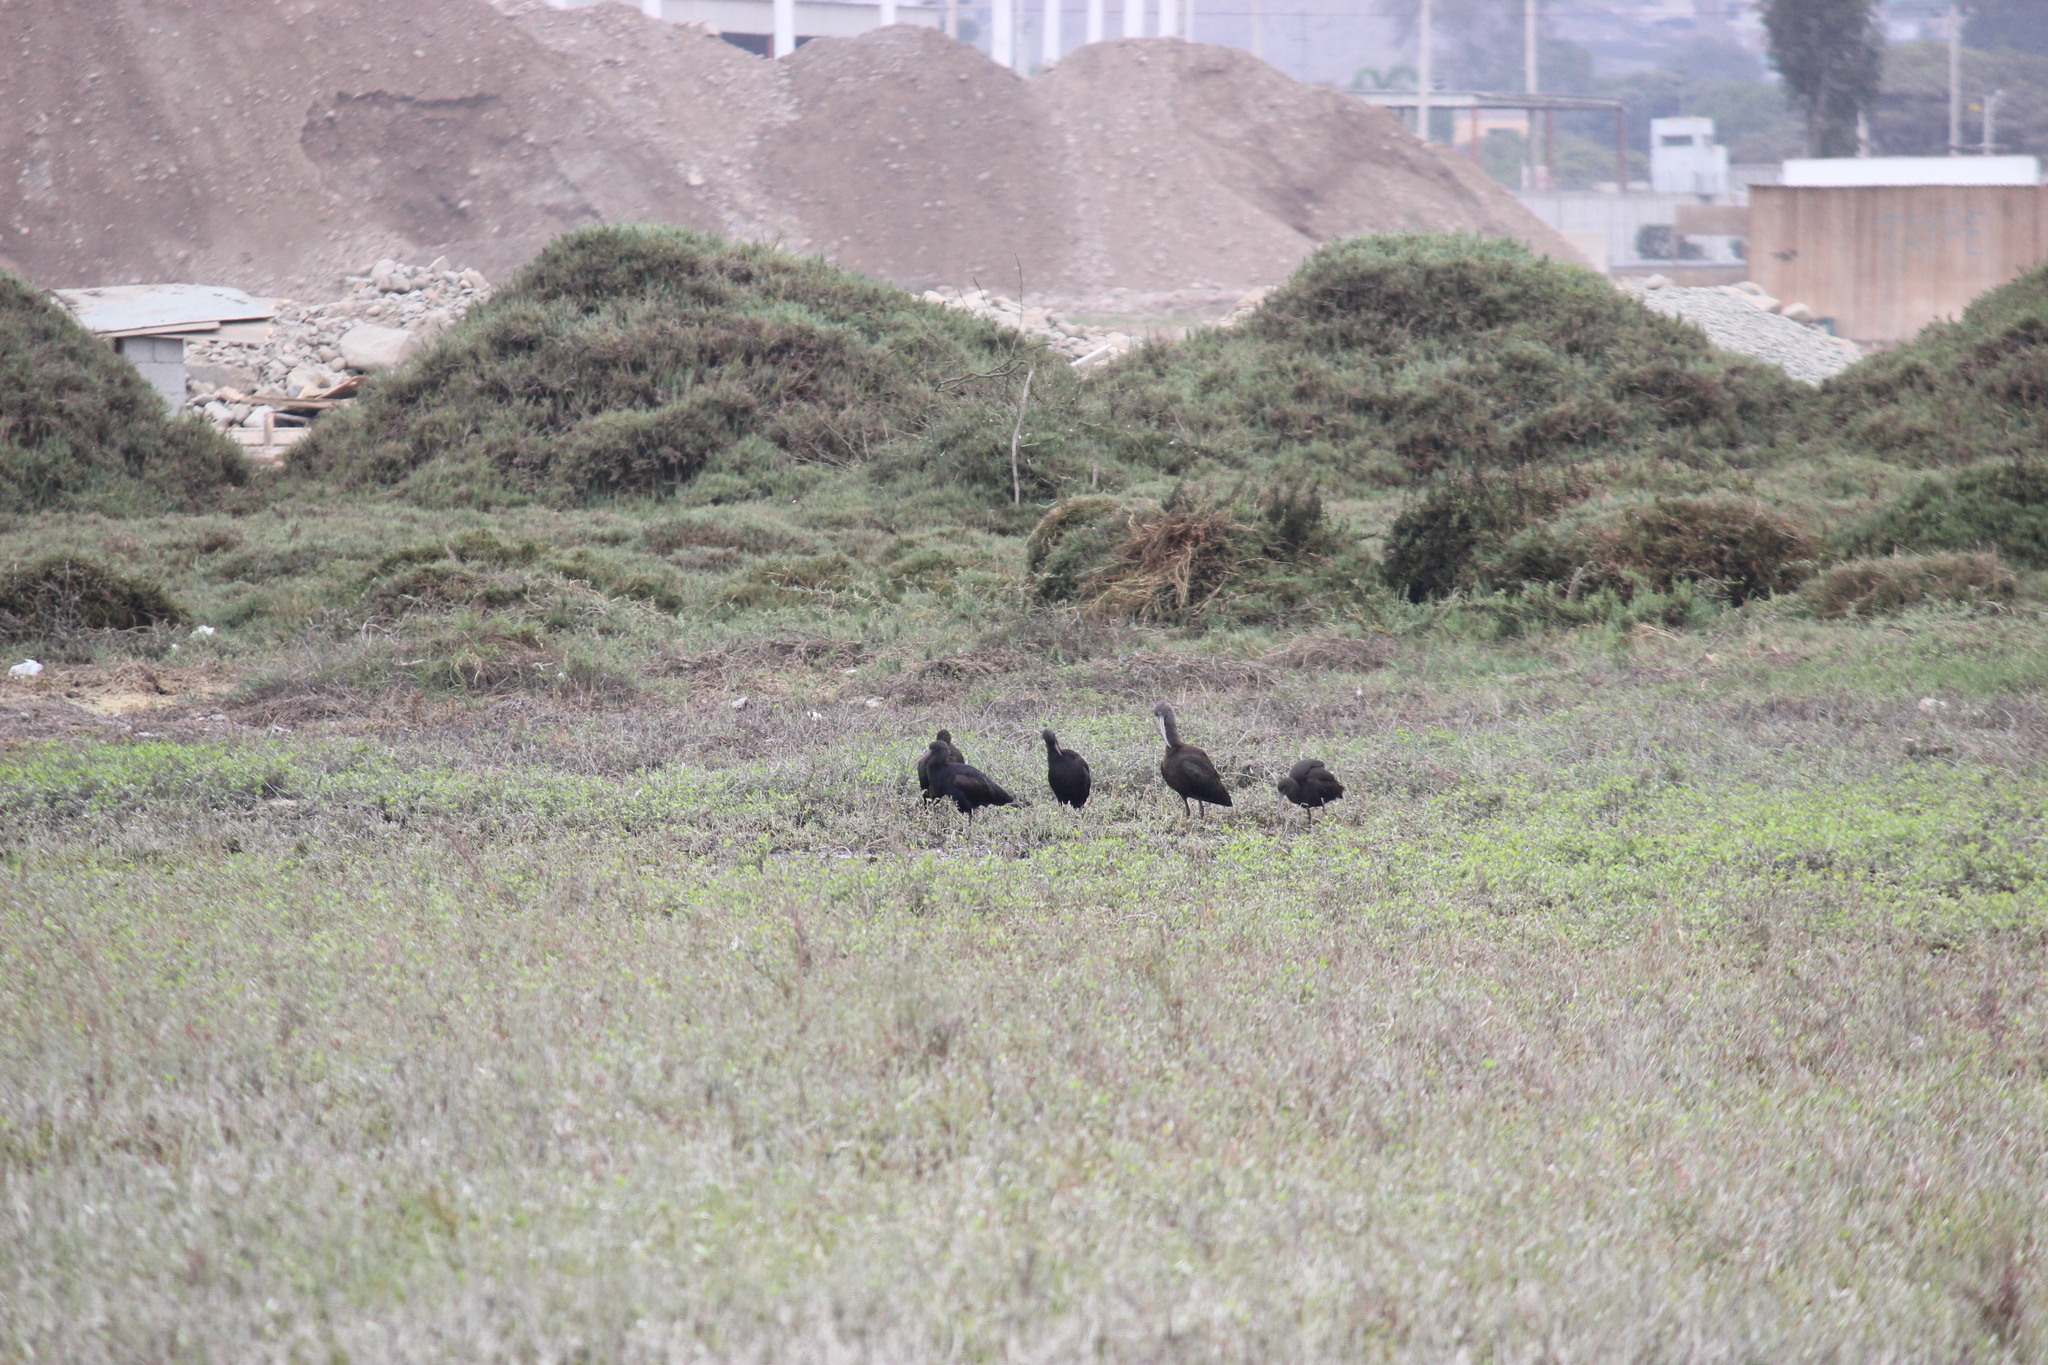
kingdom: Animalia
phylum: Chordata
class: Aves
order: Pelecaniformes
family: Threskiornithidae
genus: Plegadis
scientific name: Plegadis ridgwayi
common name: Puna ibis
